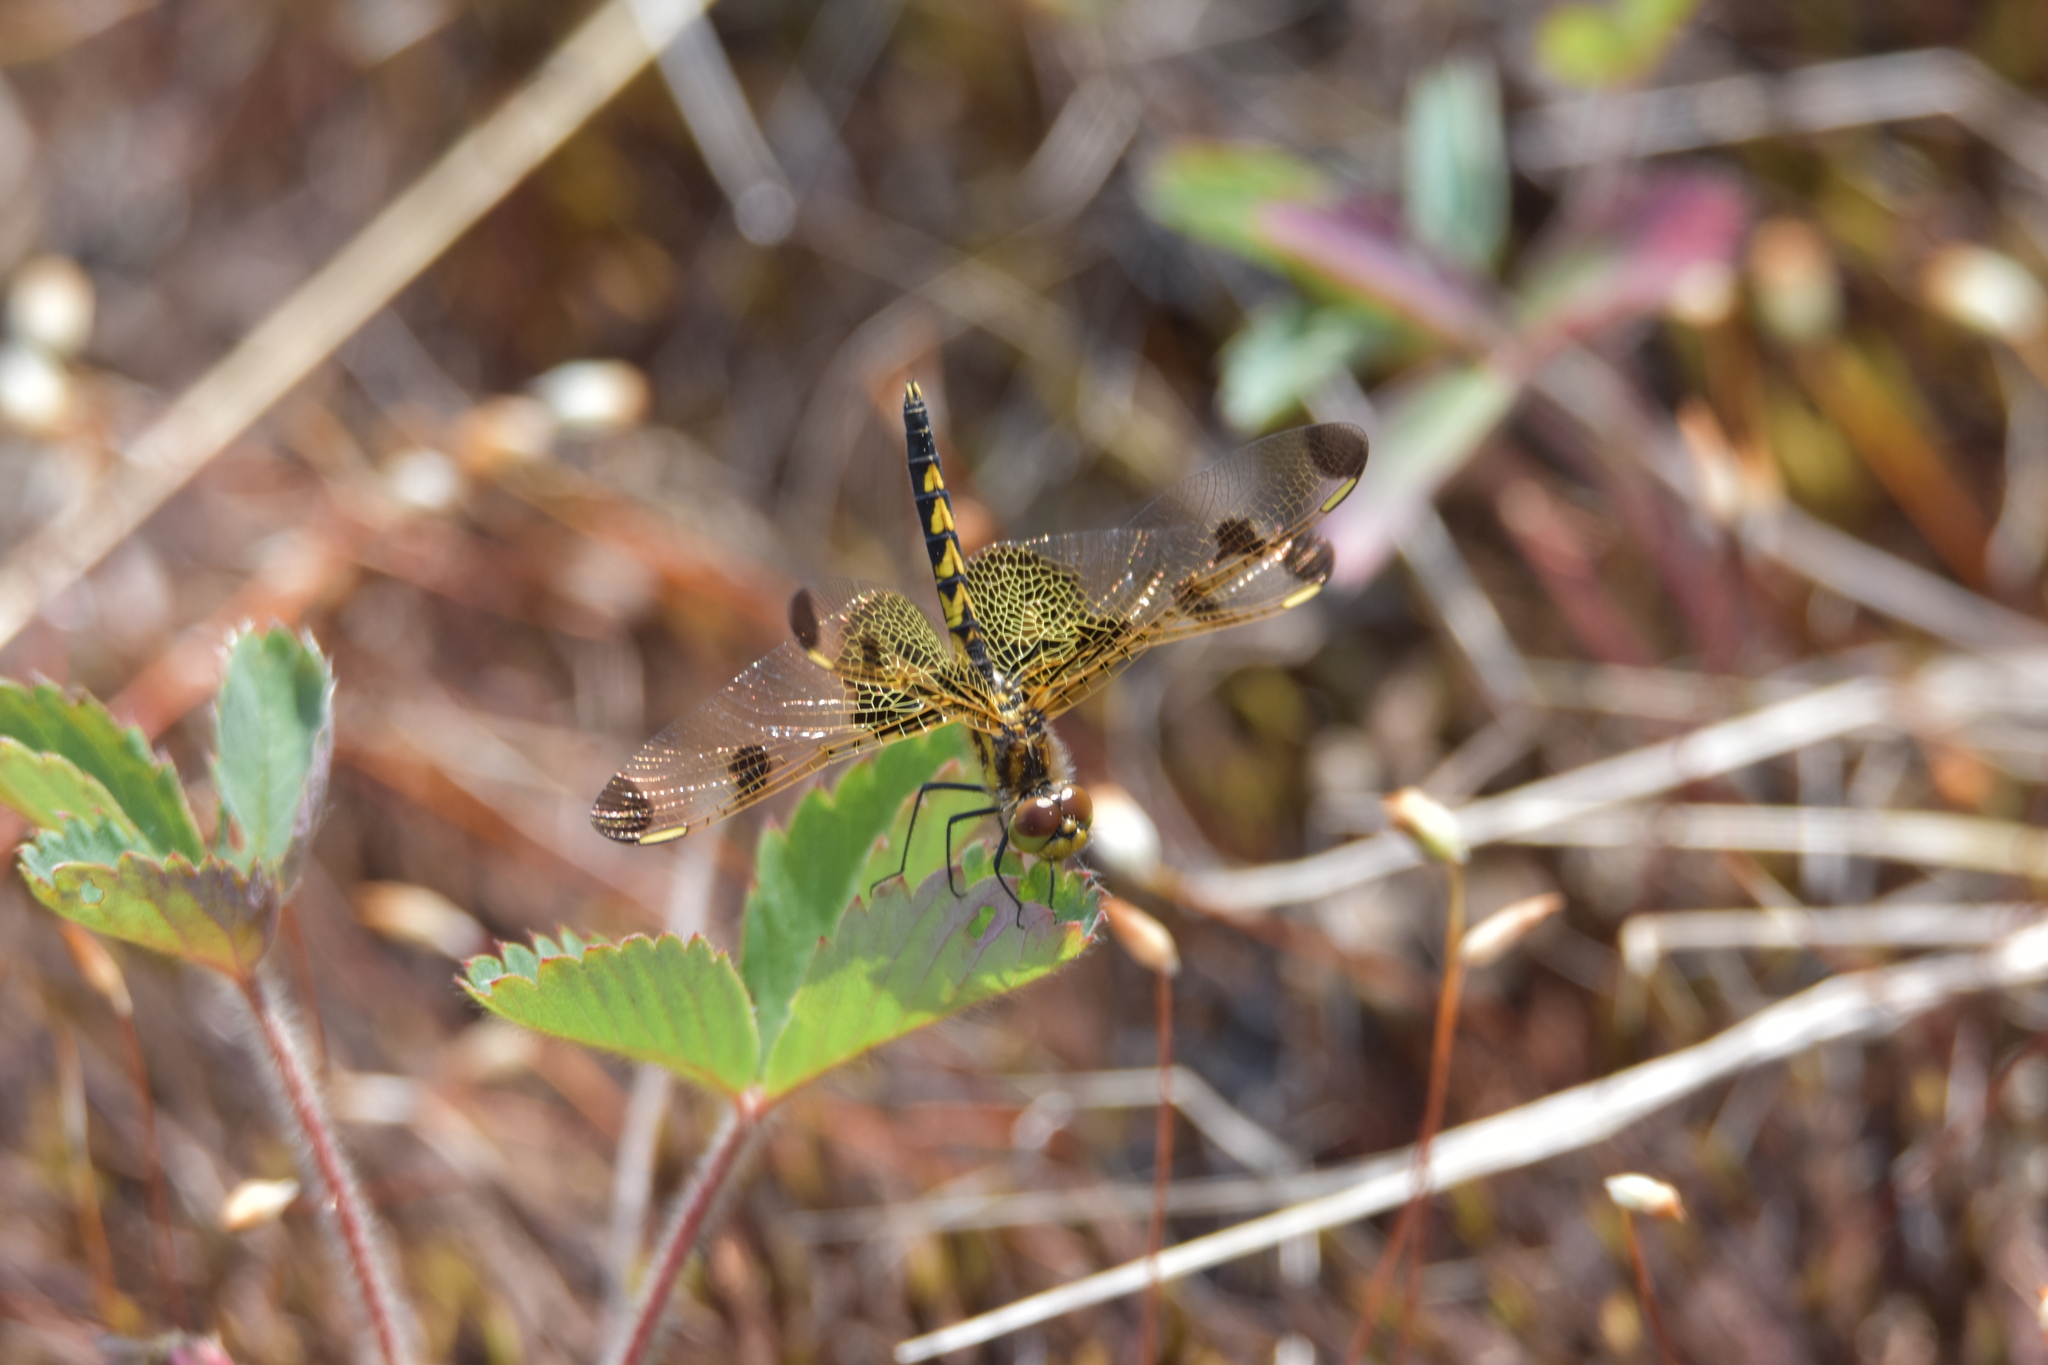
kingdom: Animalia
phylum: Arthropoda
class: Insecta
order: Odonata
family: Libellulidae
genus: Celithemis
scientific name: Celithemis elisa
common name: Calico pennant
